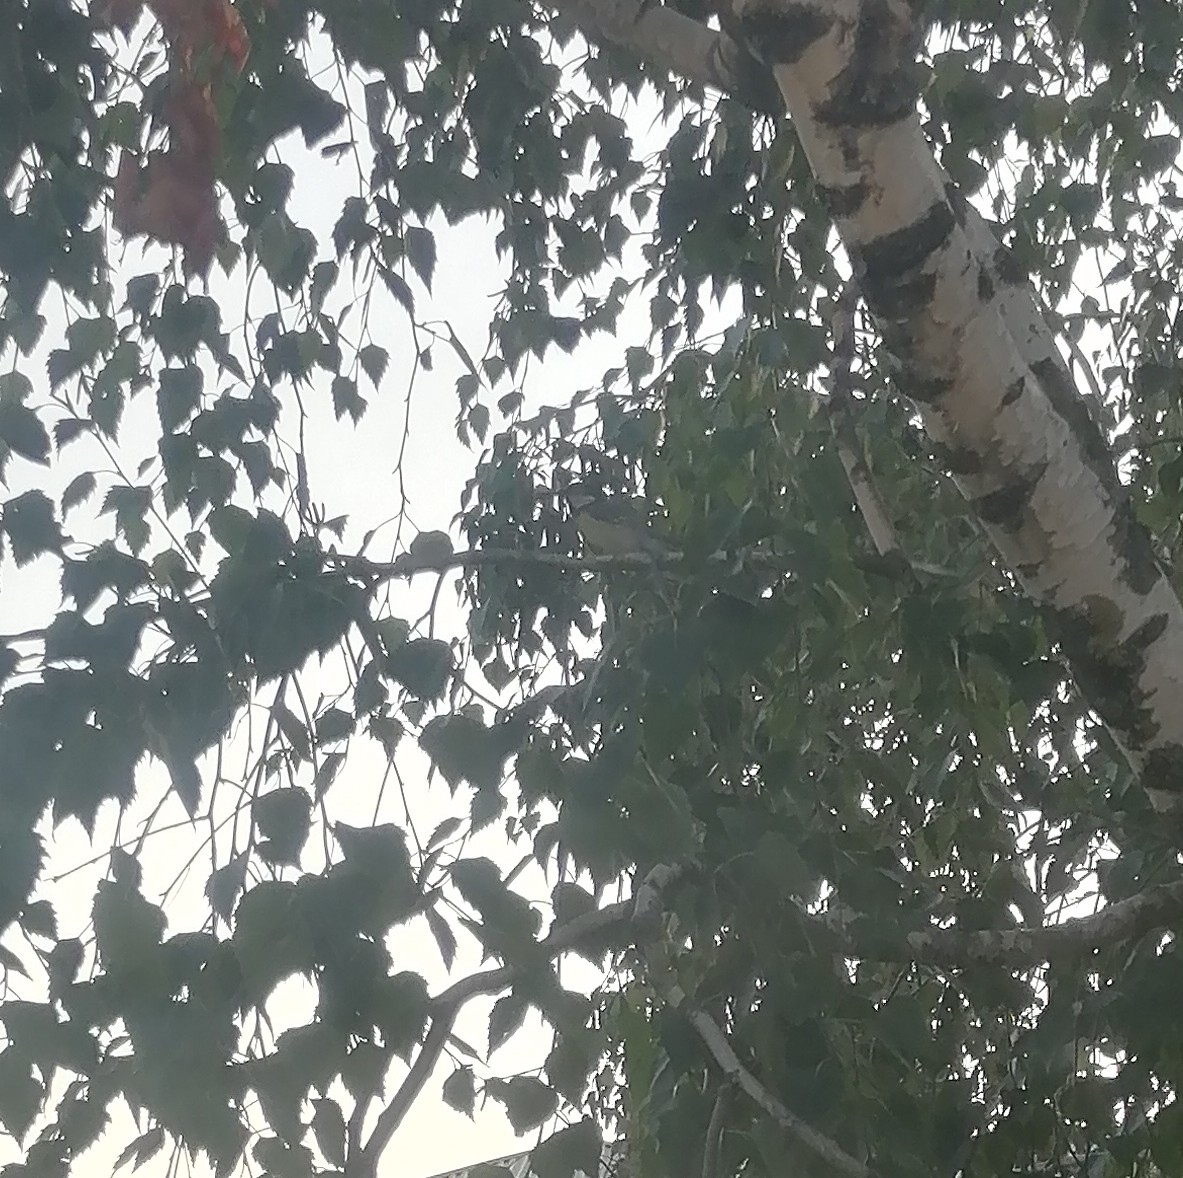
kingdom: Animalia
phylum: Chordata
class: Aves
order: Passeriformes
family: Paridae
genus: Parus
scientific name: Parus major
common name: Great tit
